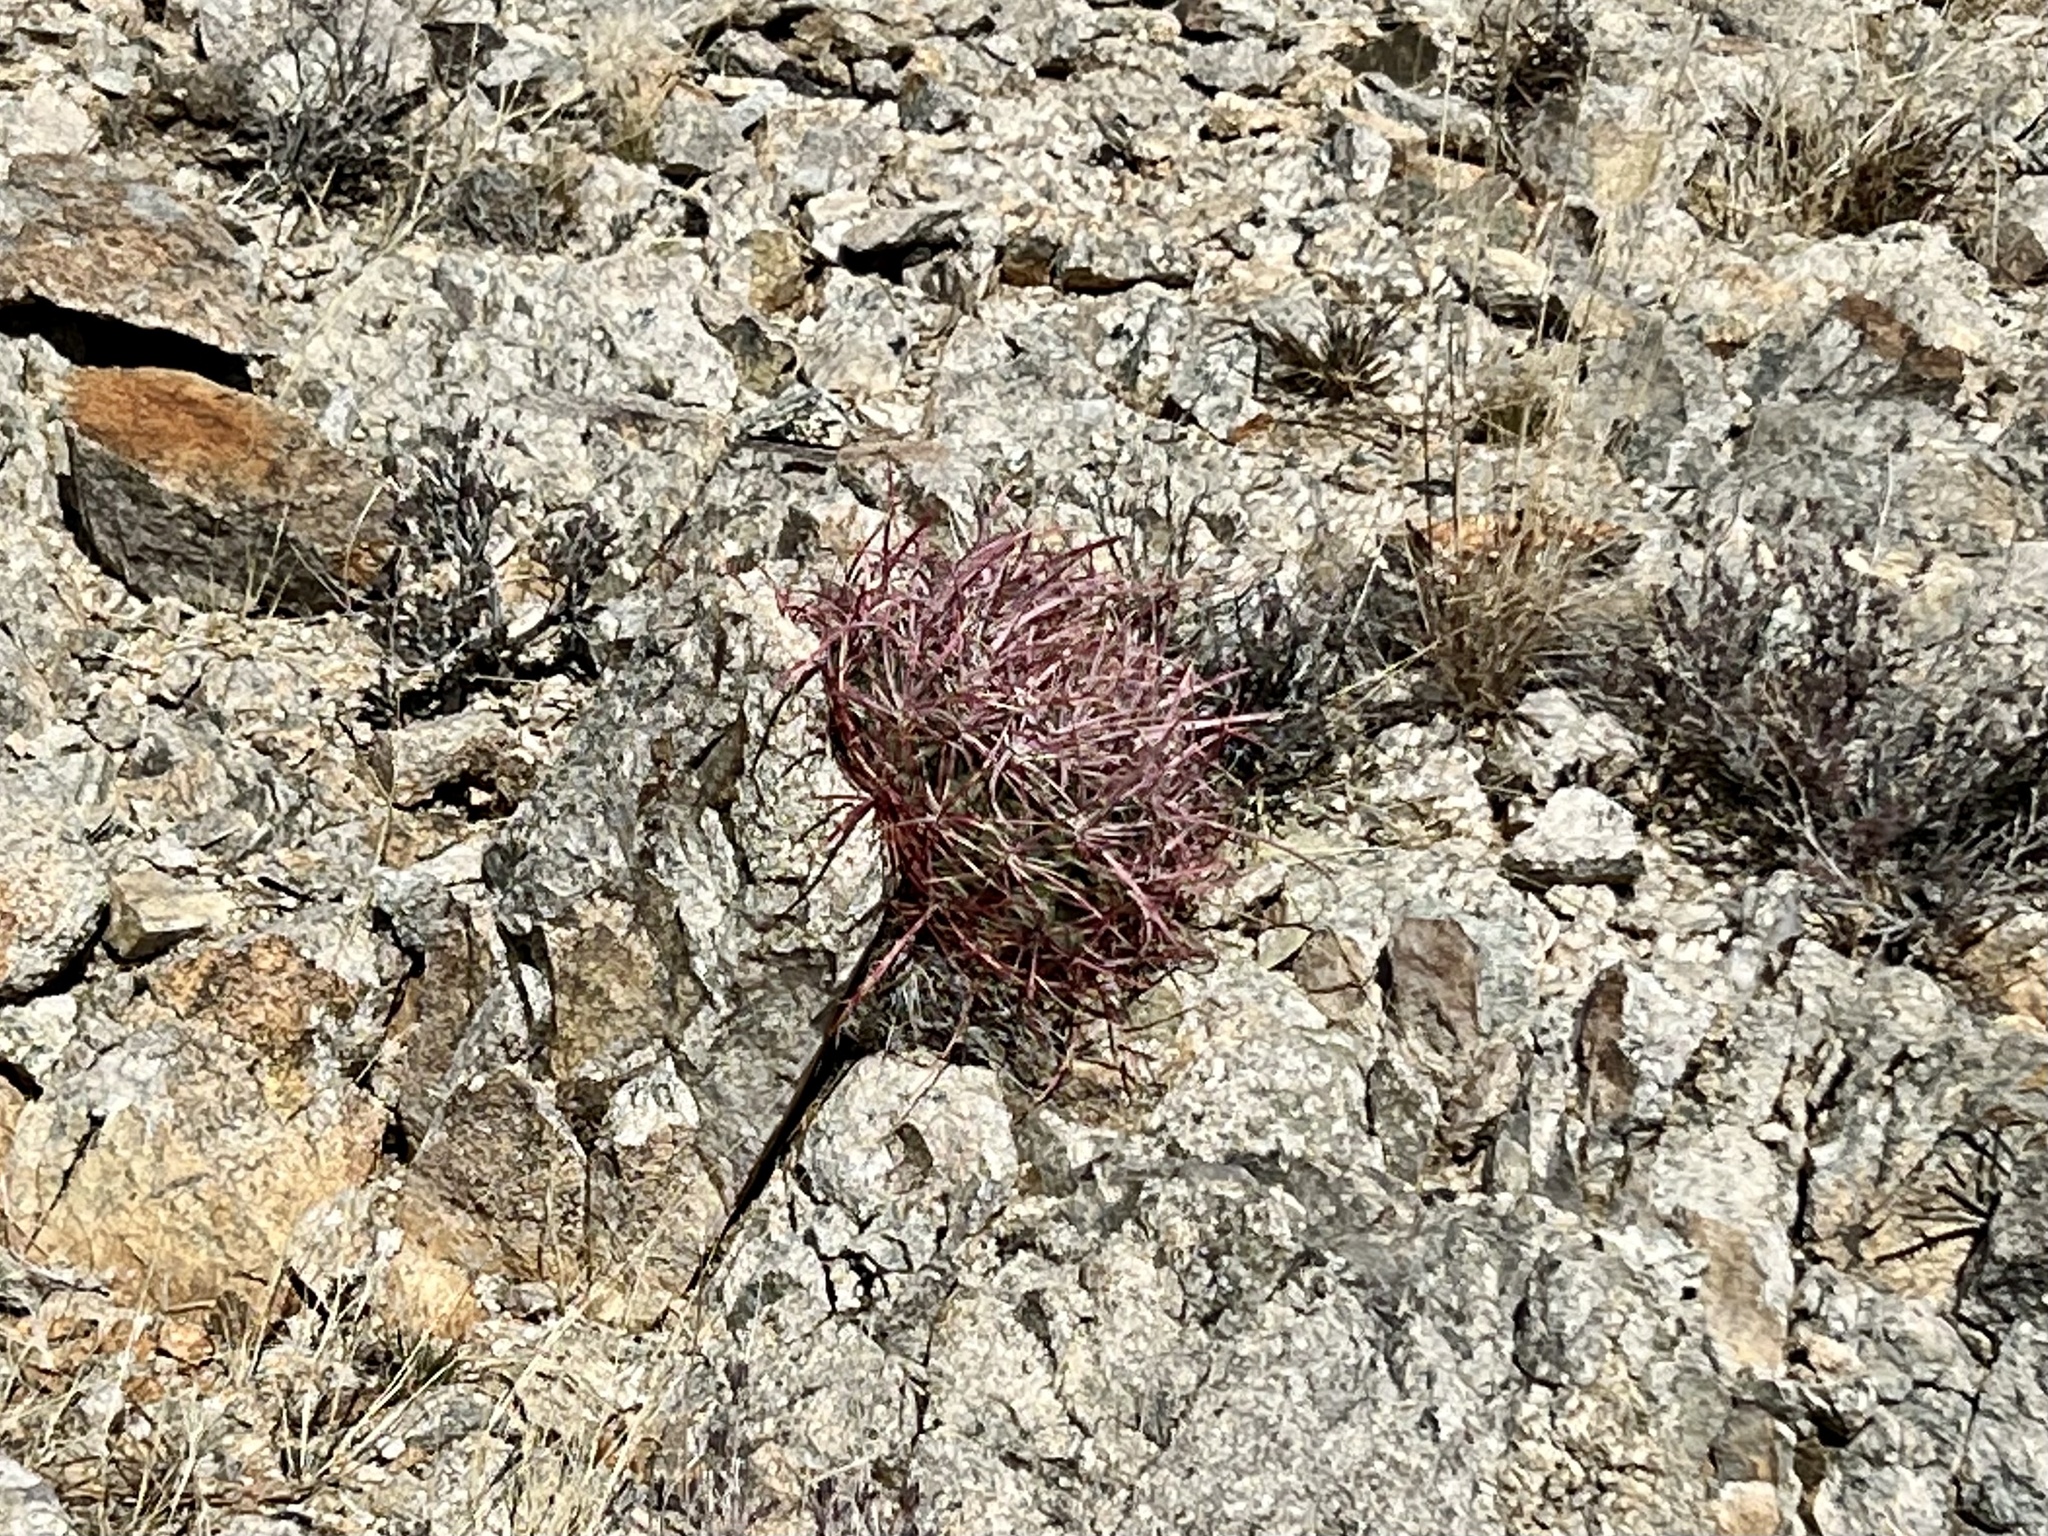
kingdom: Plantae
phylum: Tracheophyta
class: Magnoliopsida
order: Caryophyllales
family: Cactaceae
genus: Ferocactus
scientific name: Ferocactus cylindraceus
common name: California barrel cactus
